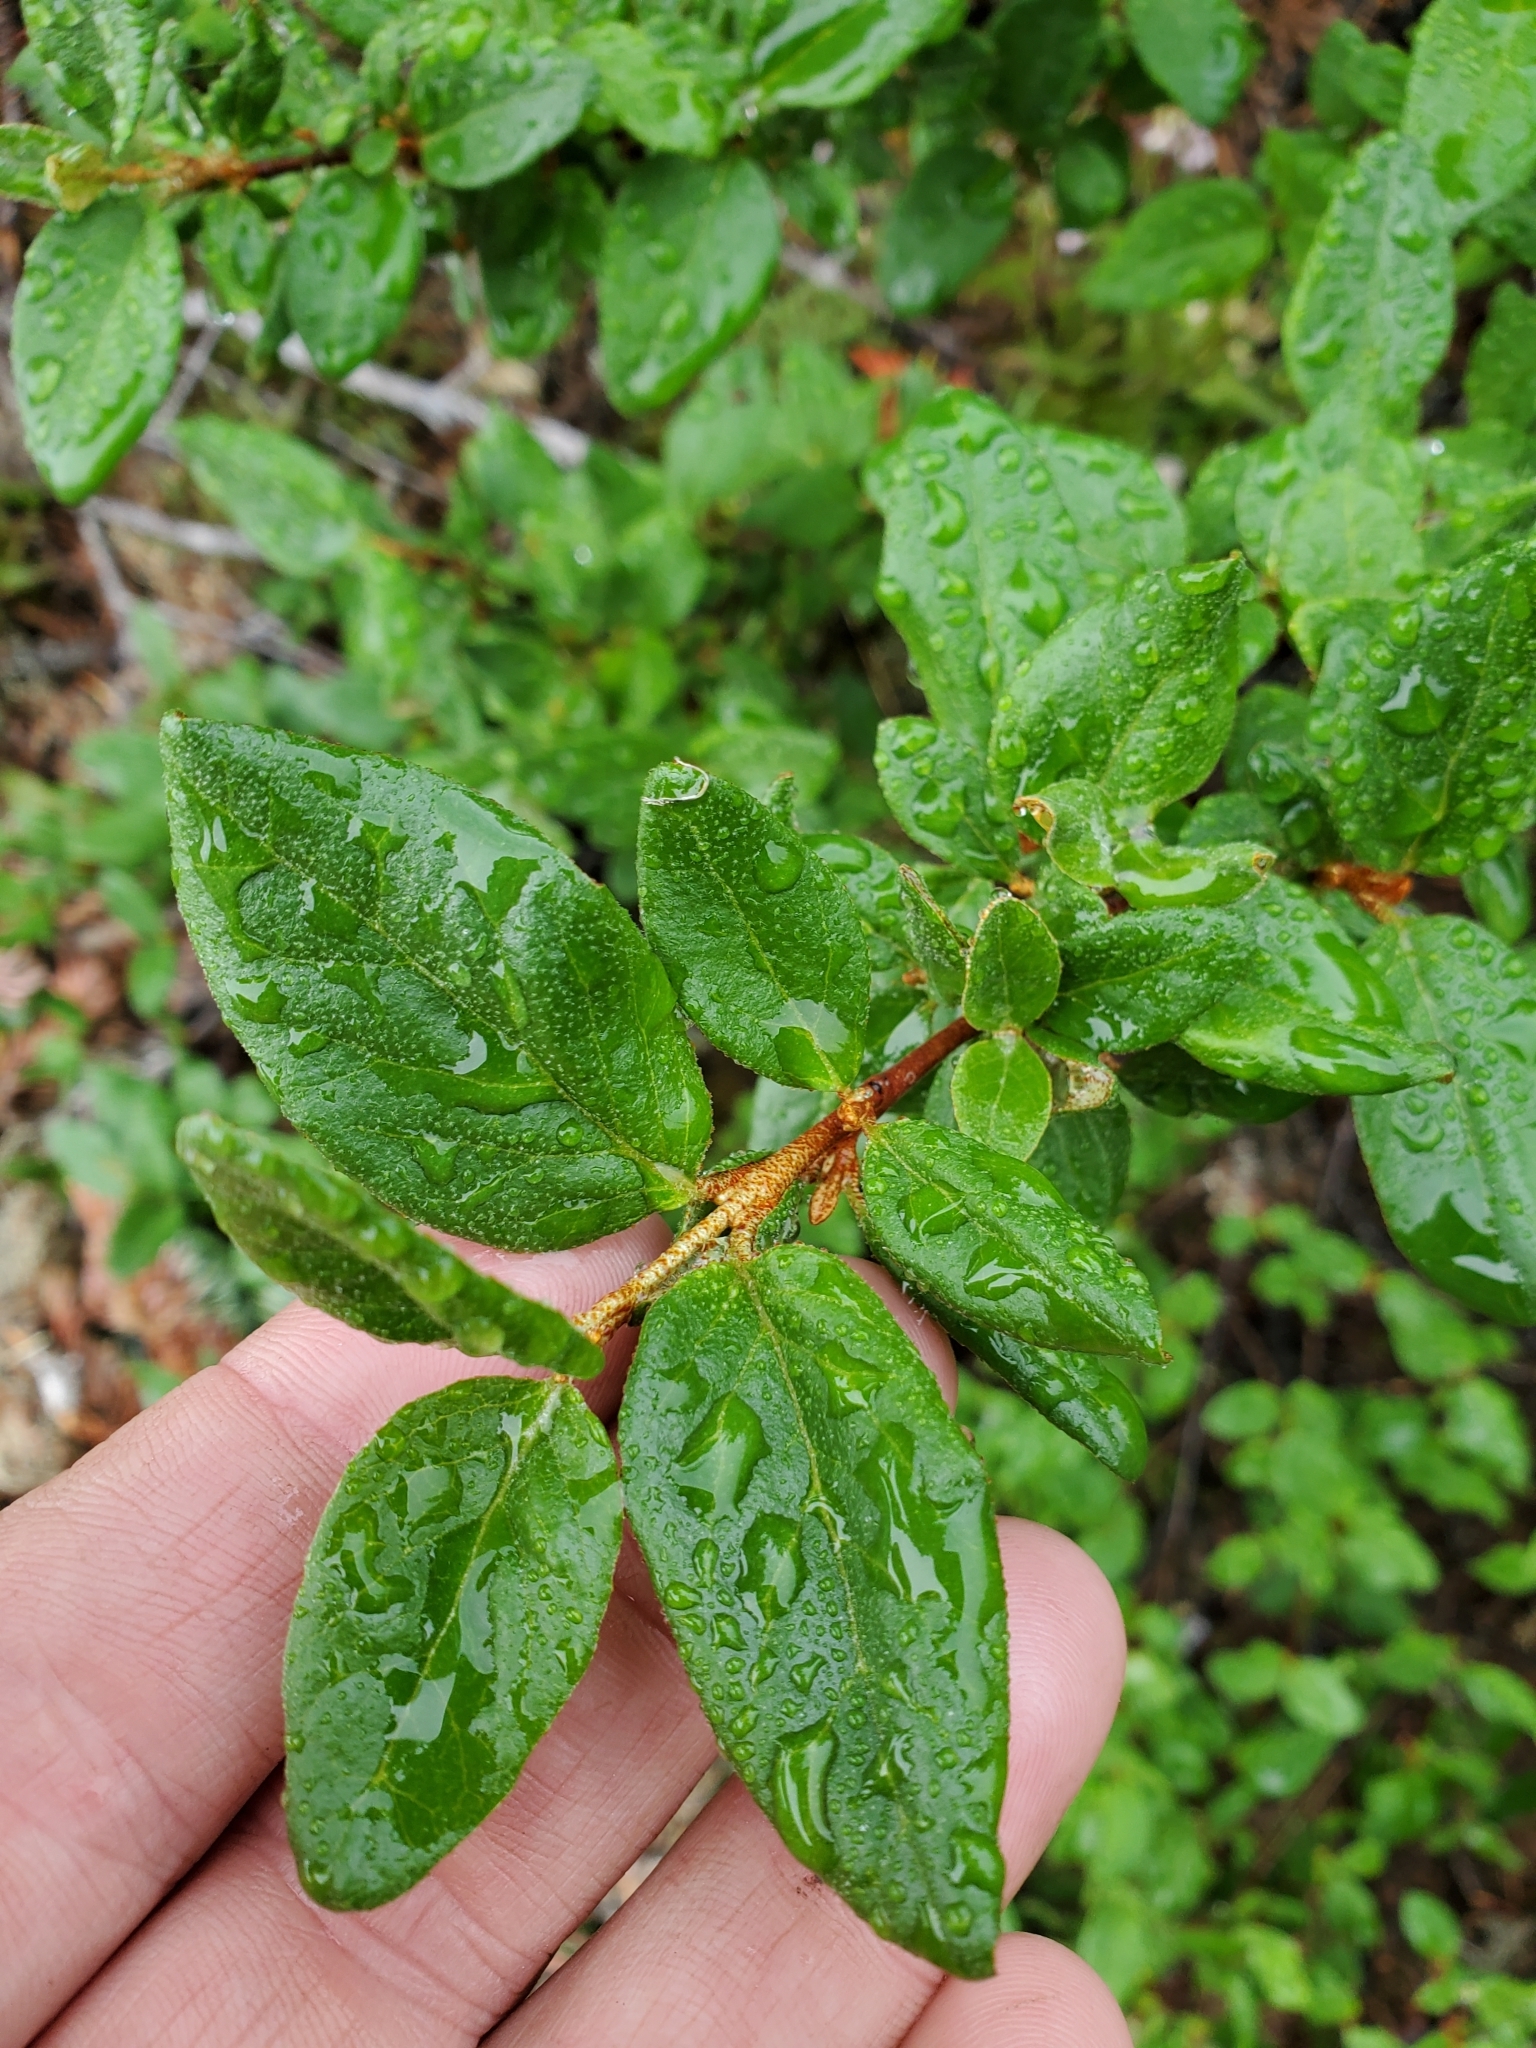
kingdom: Plantae
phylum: Tracheophyta
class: Magnoliopsida
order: Rosales
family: Elaeagnaceae
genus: Shepherdia
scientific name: Shepherdia canadensis
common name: Soapberry
